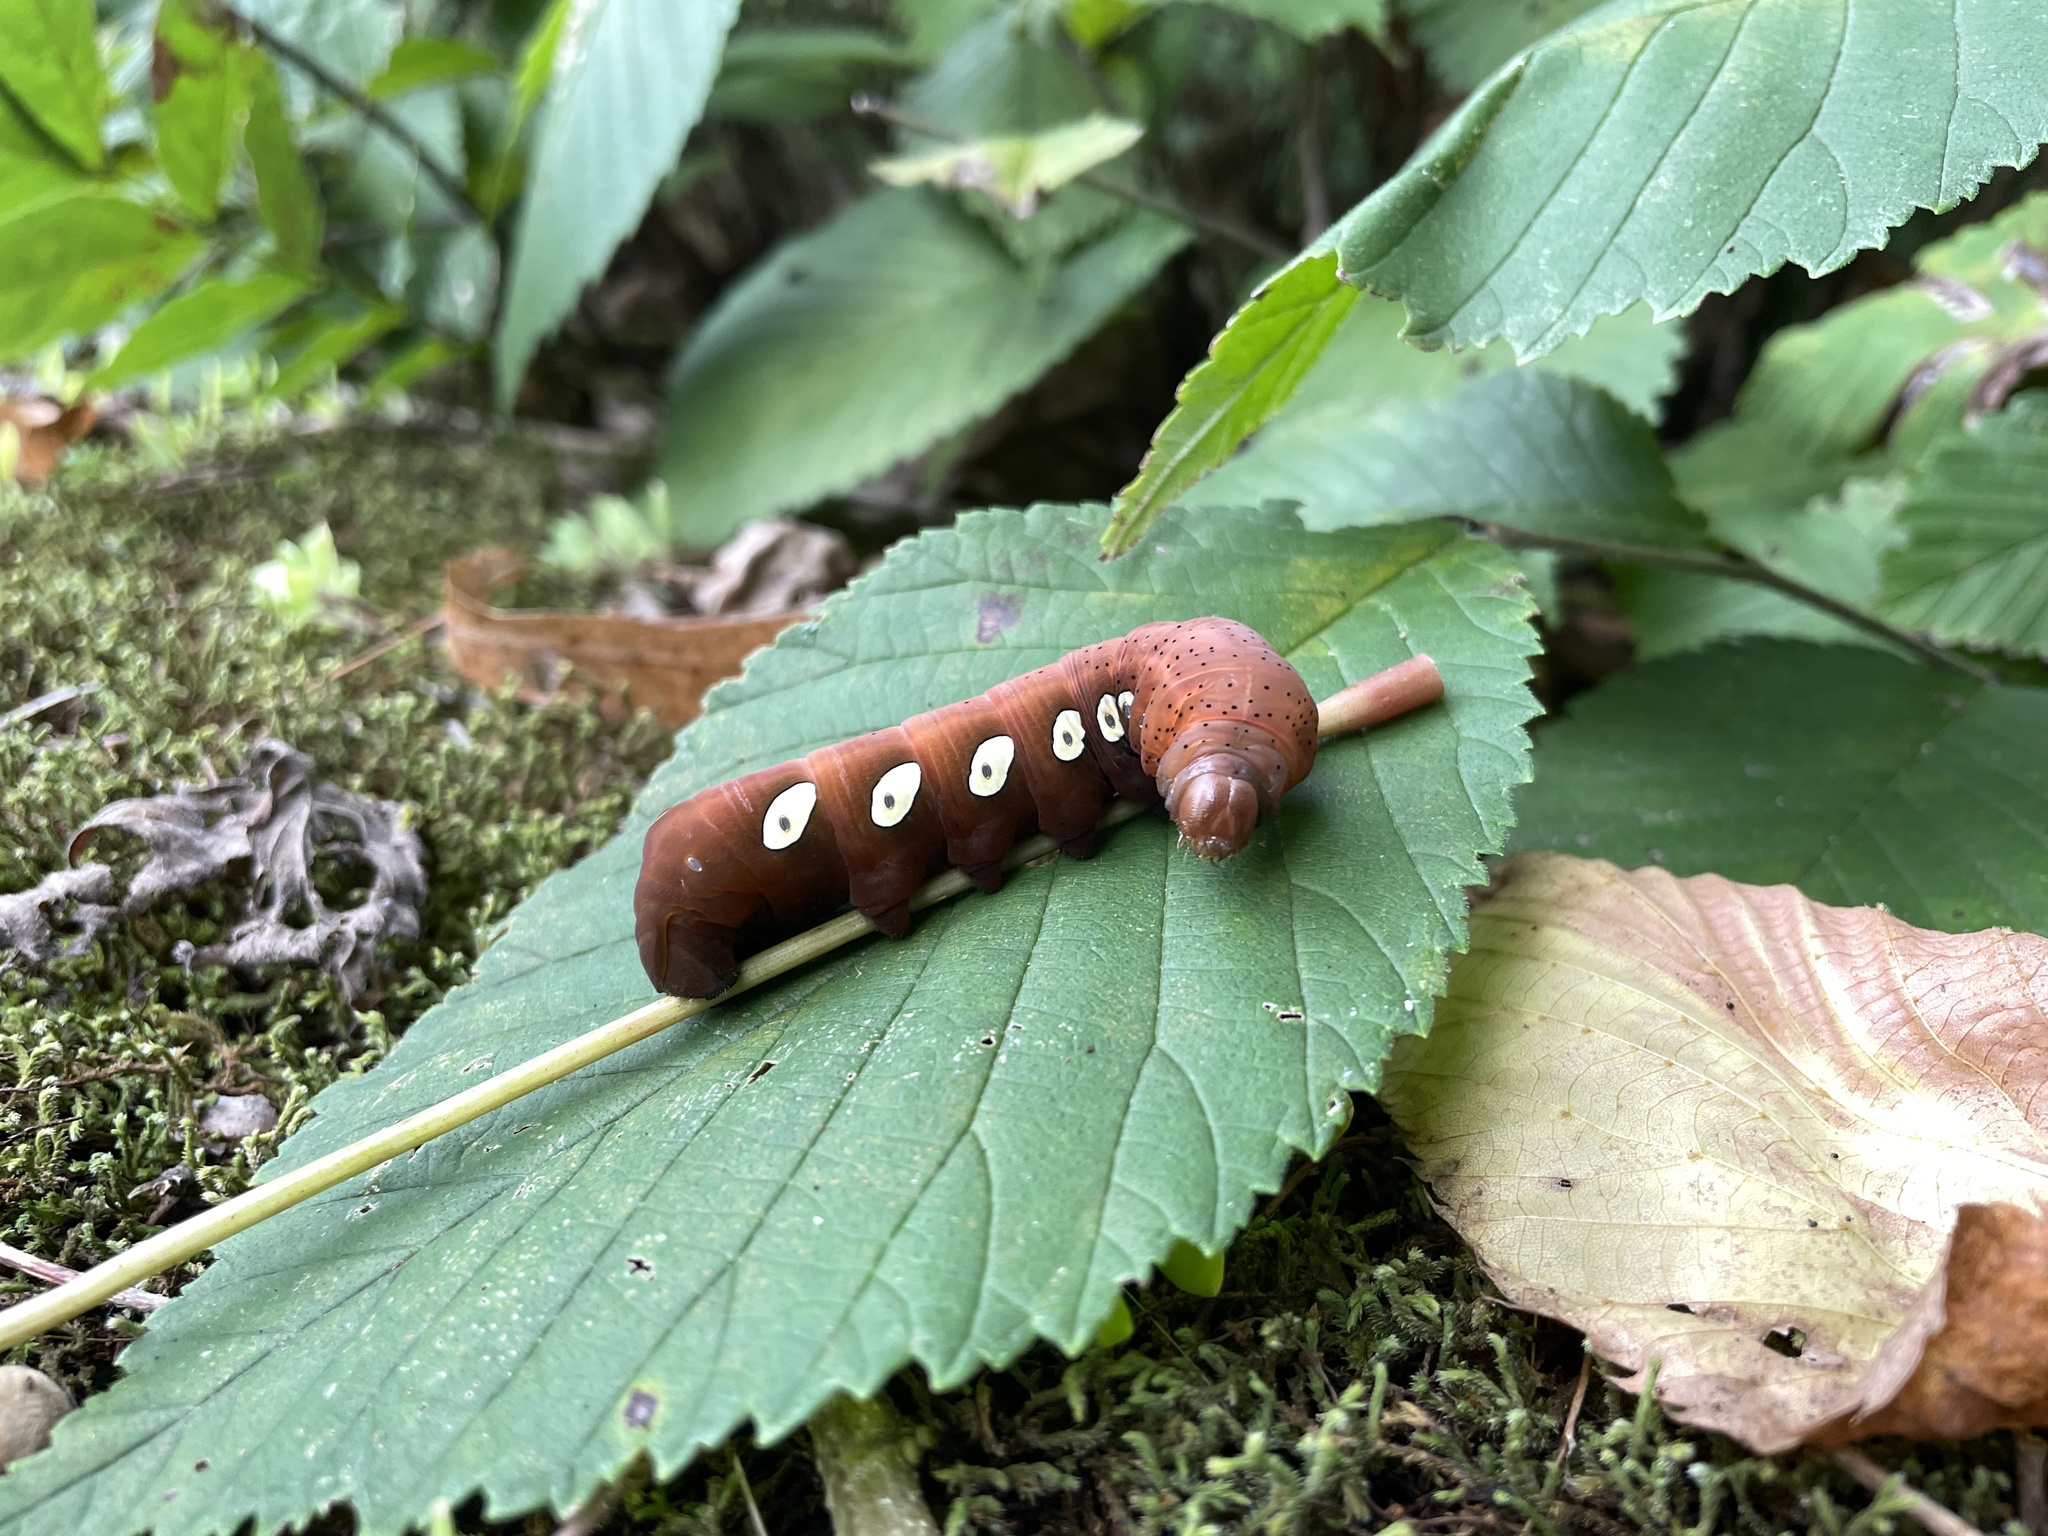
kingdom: Animalia
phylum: Arthropoda
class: Insecta
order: Lepidoptera
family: Sphingidae
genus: Eumorpha
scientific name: Eumorpha pandorus
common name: Pandora sphinx
